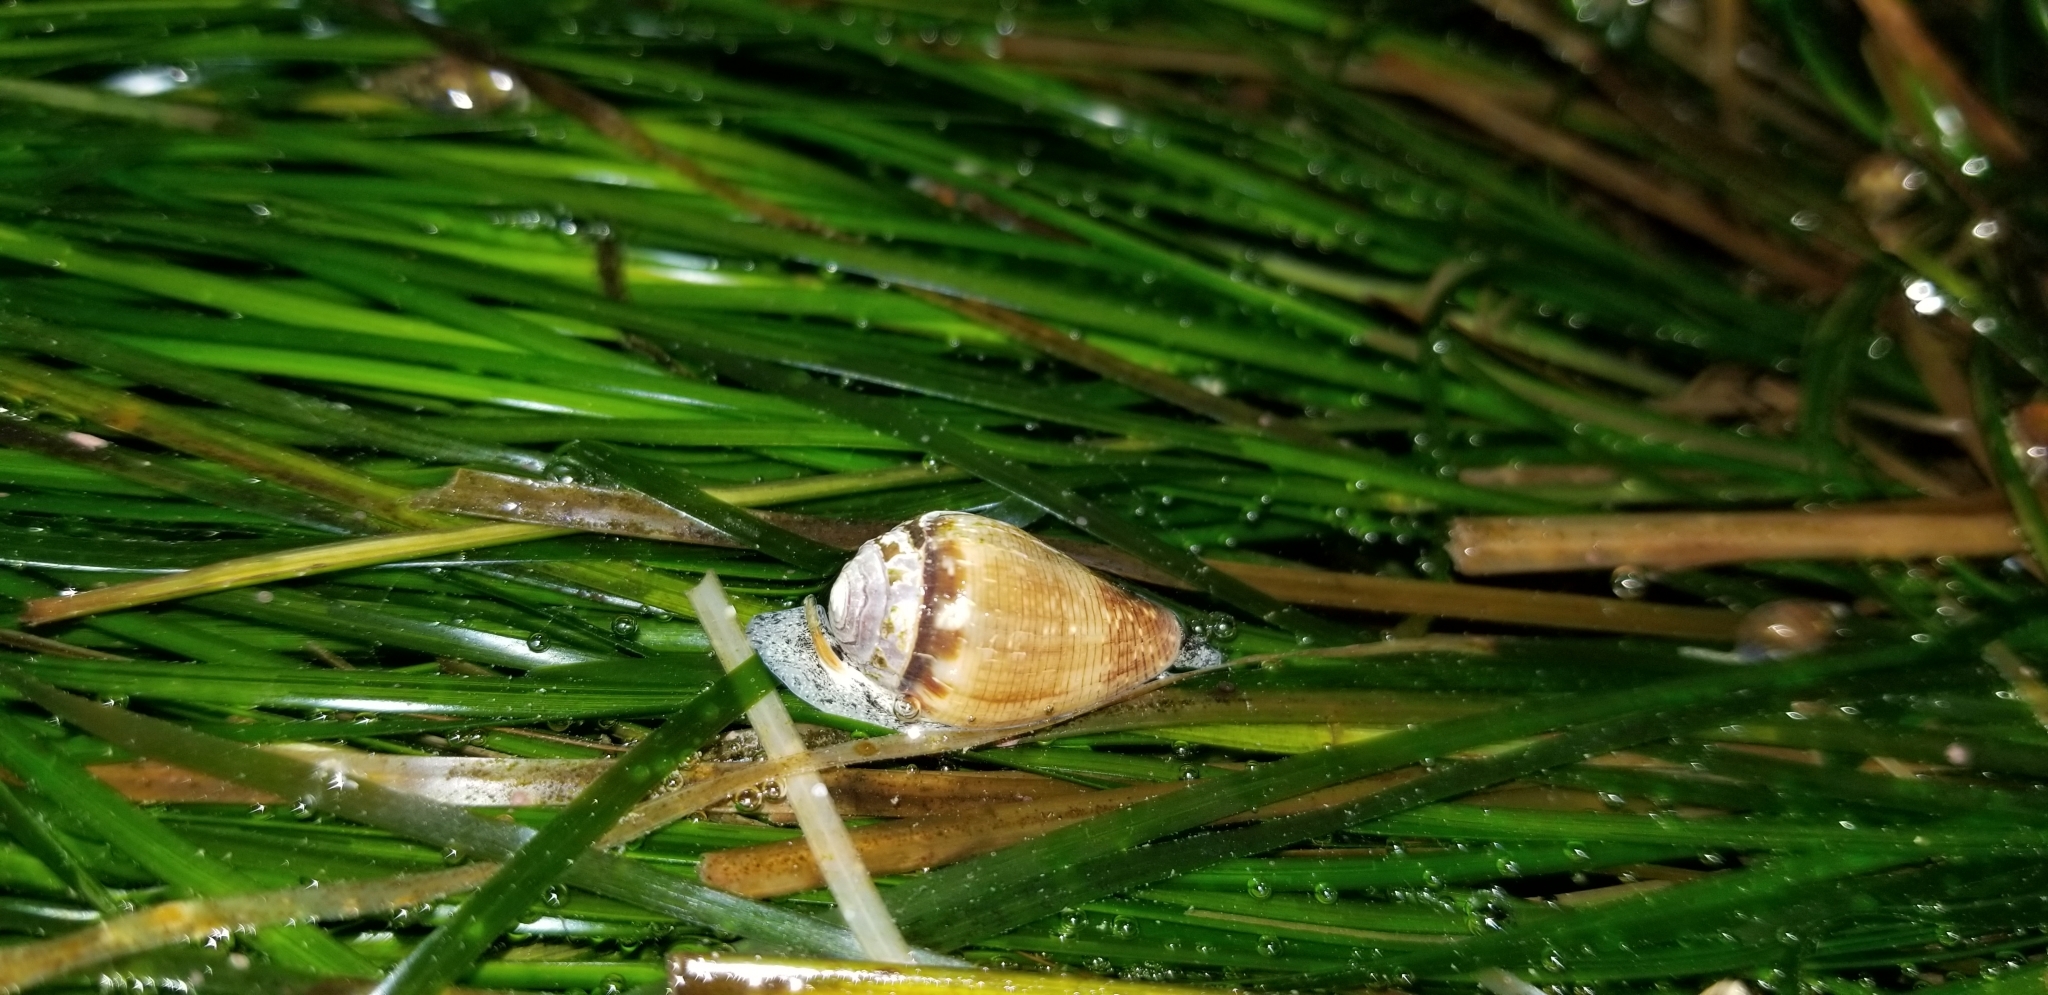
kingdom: Animalia
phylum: Mollusca
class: Gastropoda
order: Neogastropoda
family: Conidae
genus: Californiconus
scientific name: Californiconus californicus
